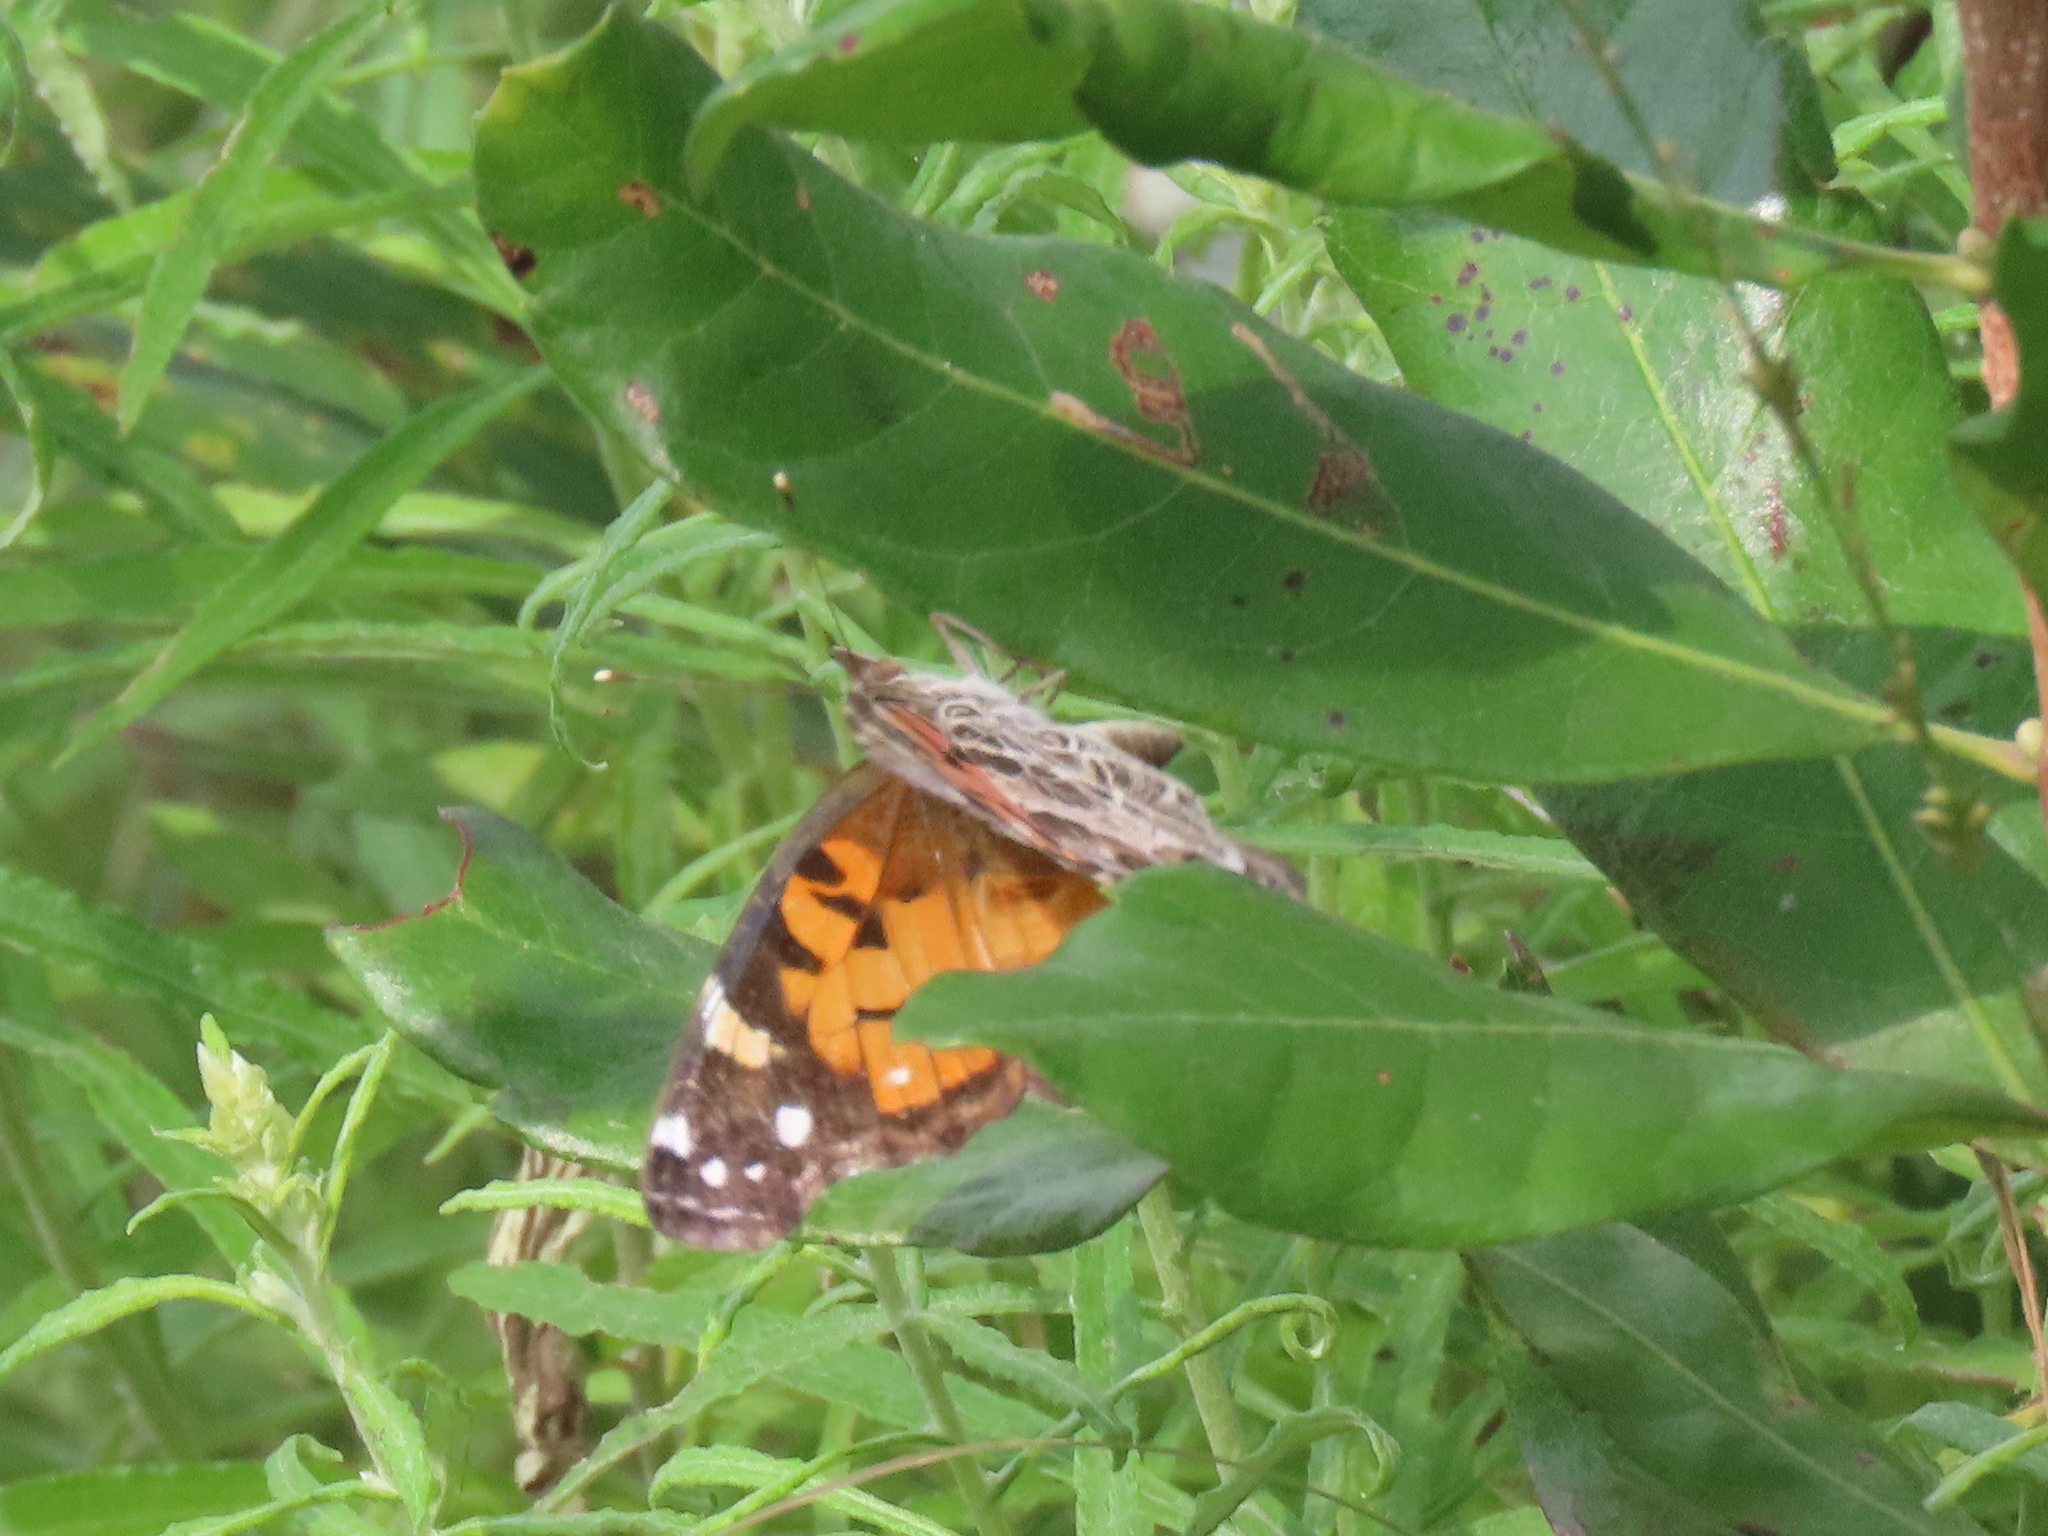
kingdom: Animalia
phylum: Arthropoda
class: Insecta
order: Lepidoptera
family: Nymphalidae
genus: Vanessa
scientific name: Vanessa virginiensis
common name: American lady
